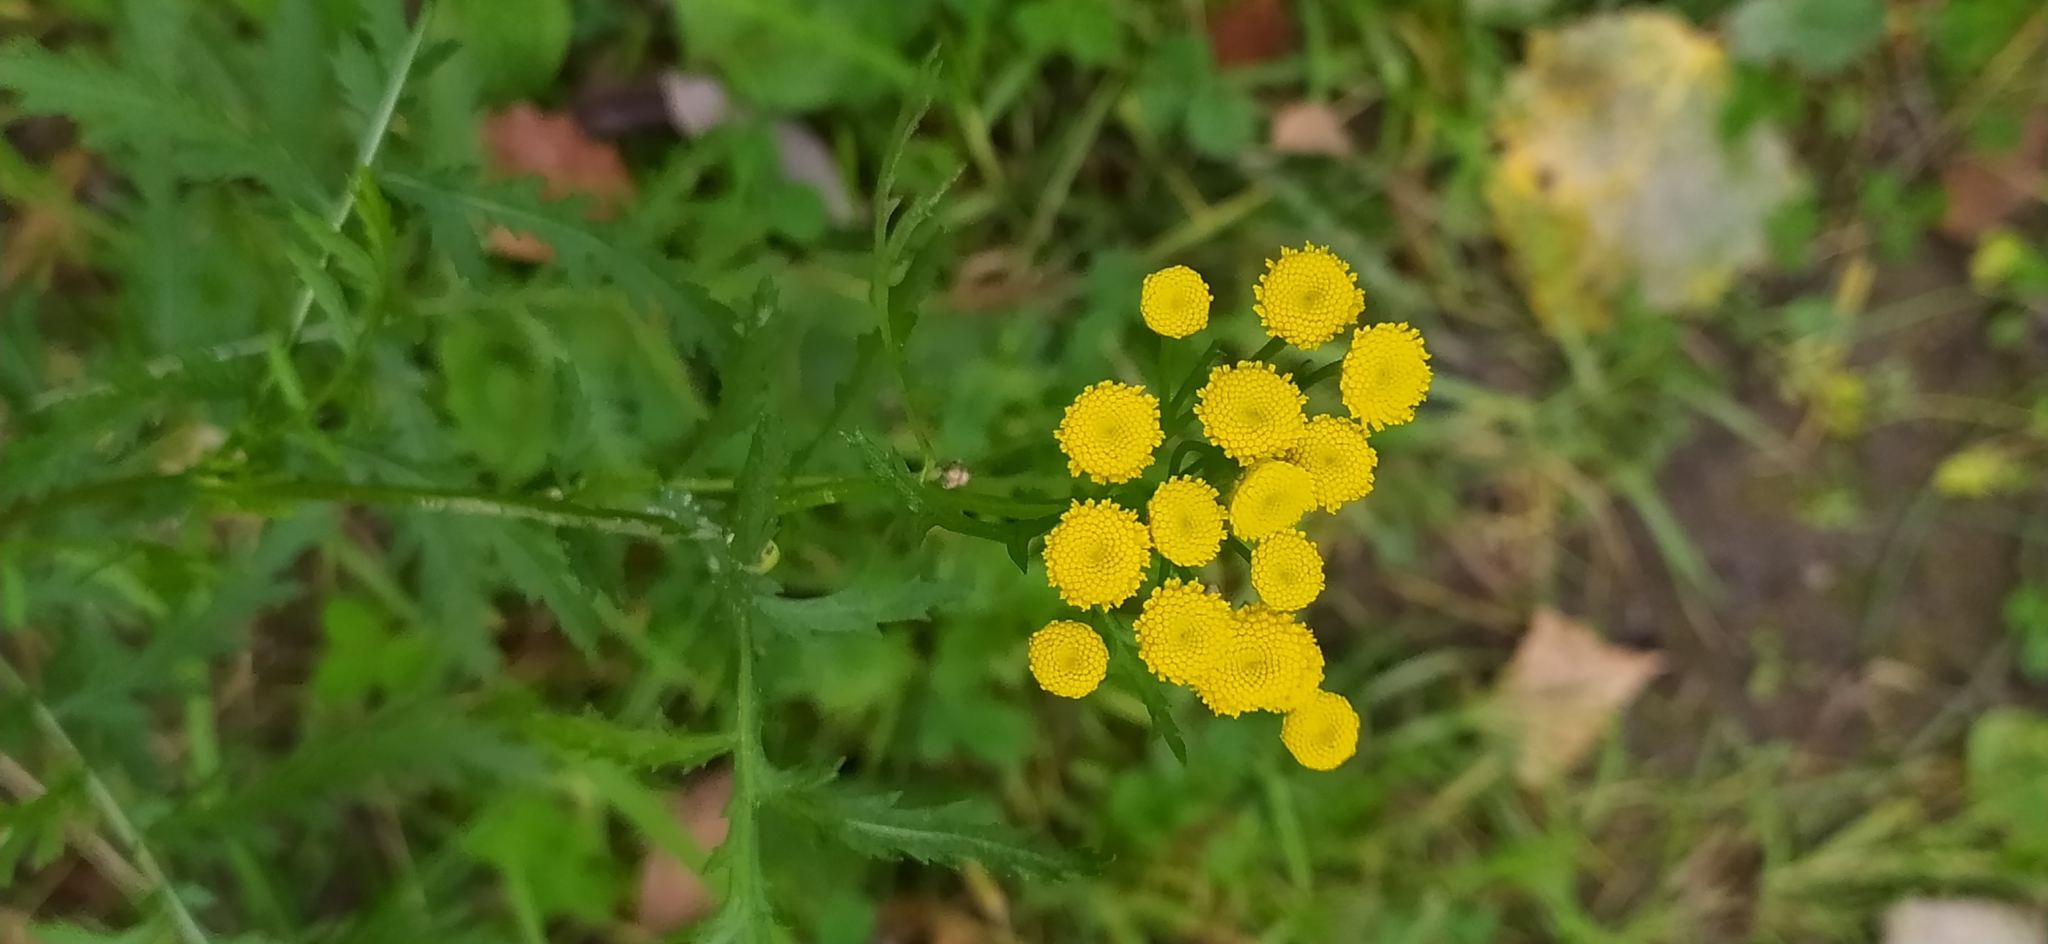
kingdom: Plantae
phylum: Tracheophyta
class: Magnoliopsida
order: Asterales
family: Asteraceae
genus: Tanacetum
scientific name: Tanacetum vulgare
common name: Common tansy
